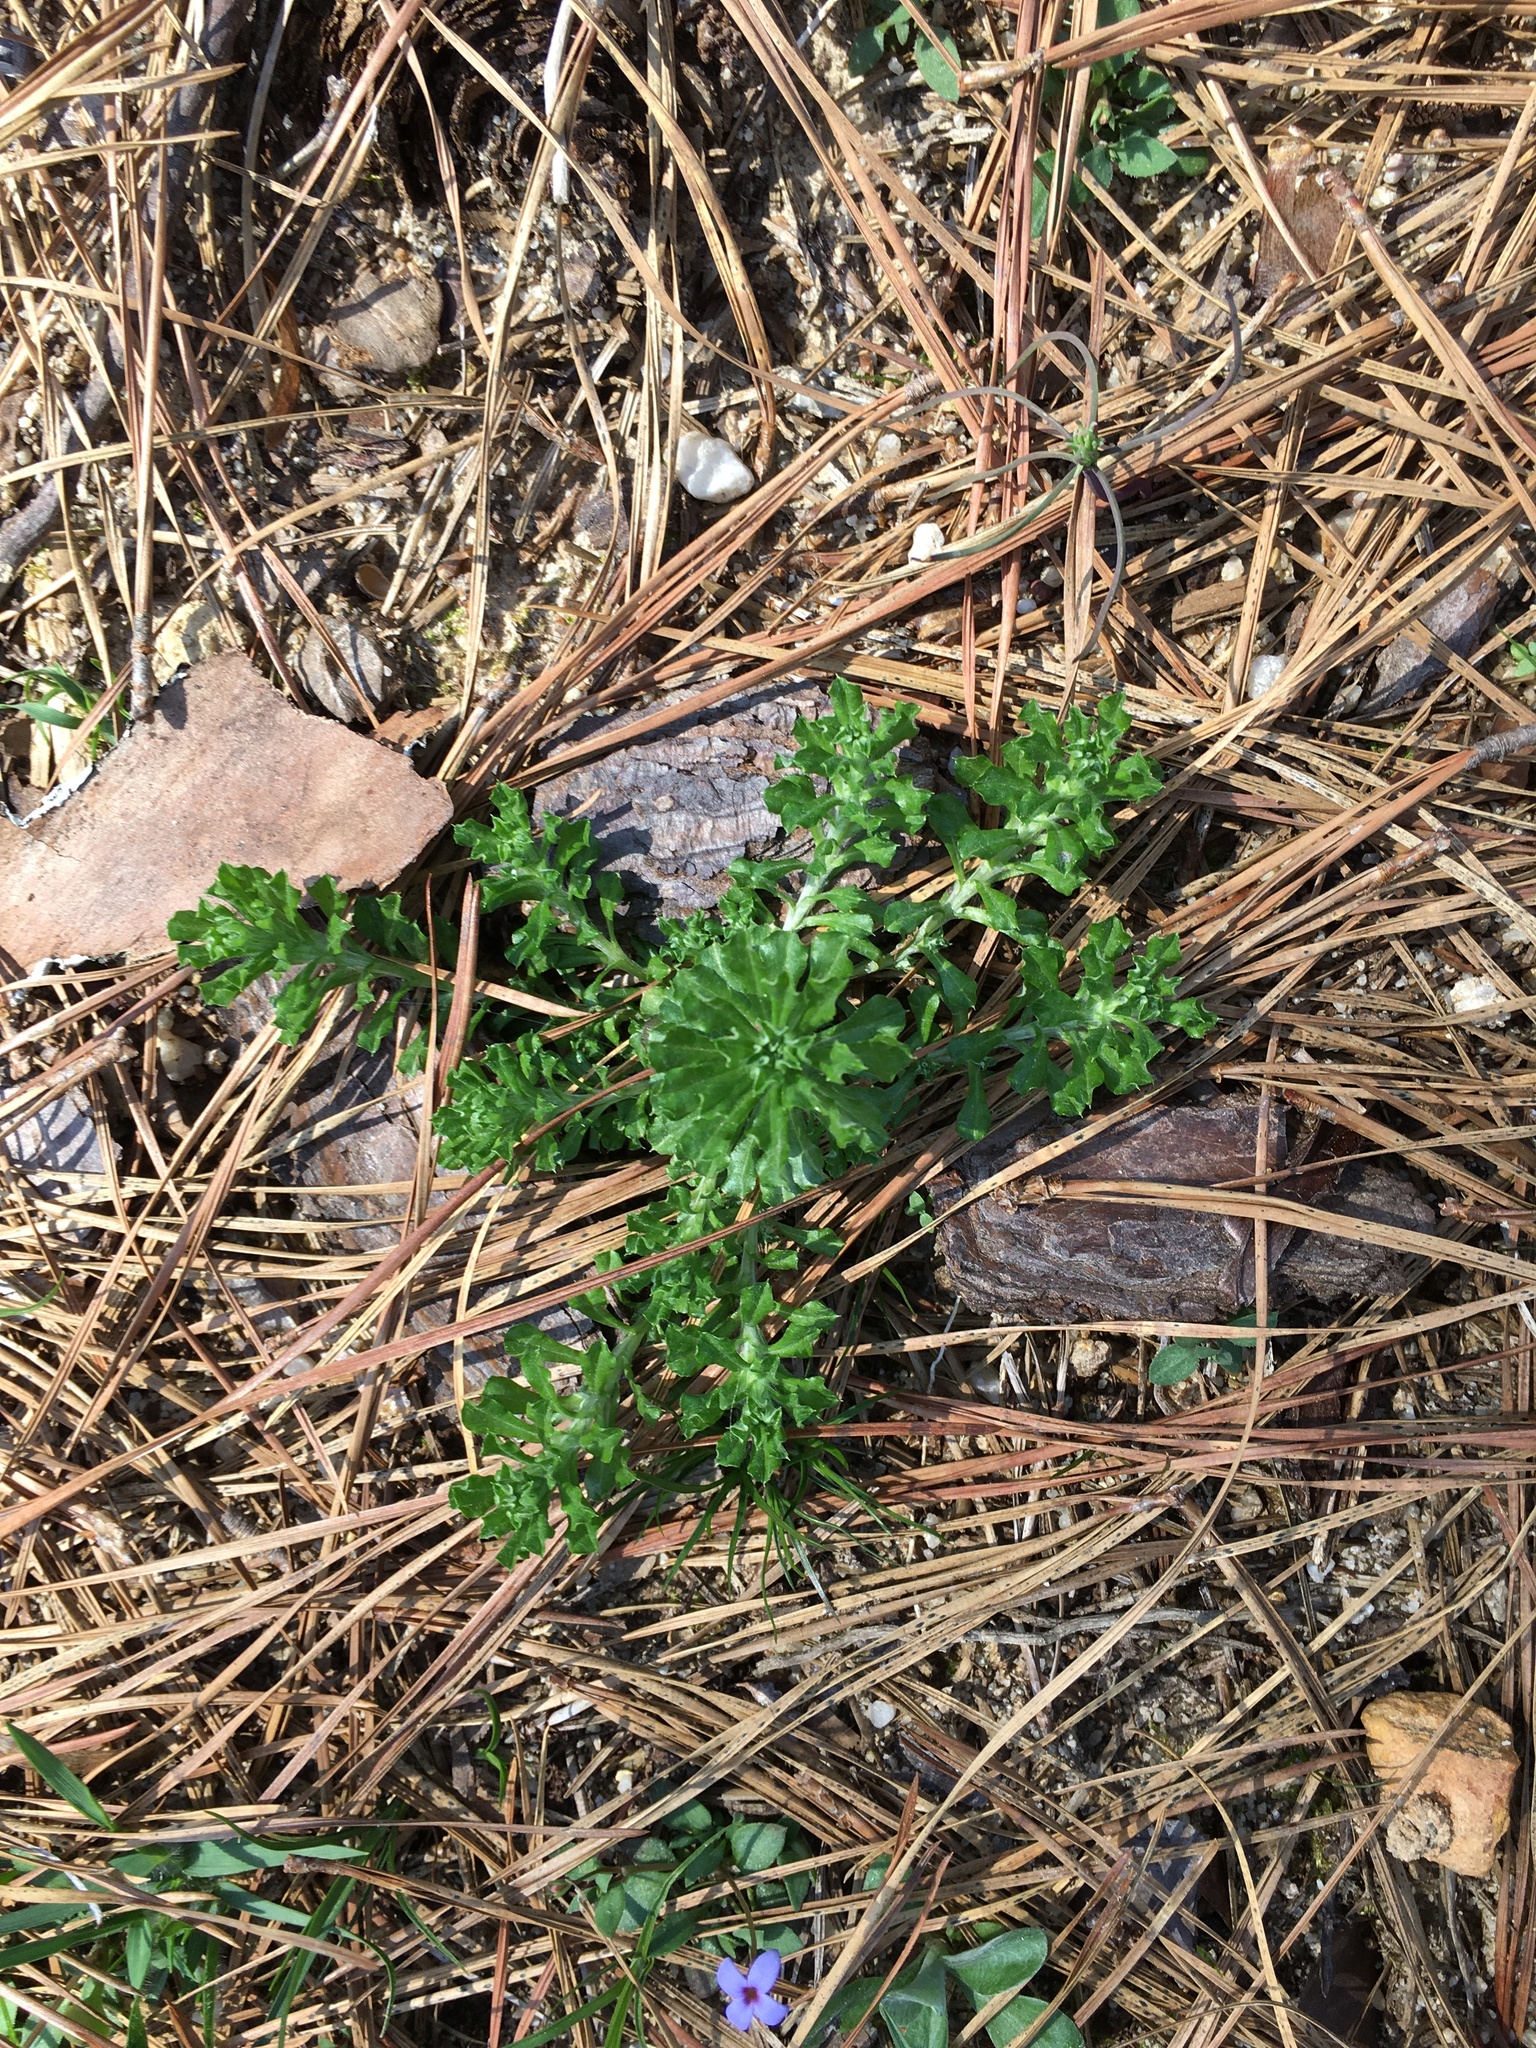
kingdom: Plantae
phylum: Tracheophyta
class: Magnoliopsida
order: Asterales
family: Asteraceae
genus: Facelis
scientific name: Facelis retusa
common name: Annual trampweed
